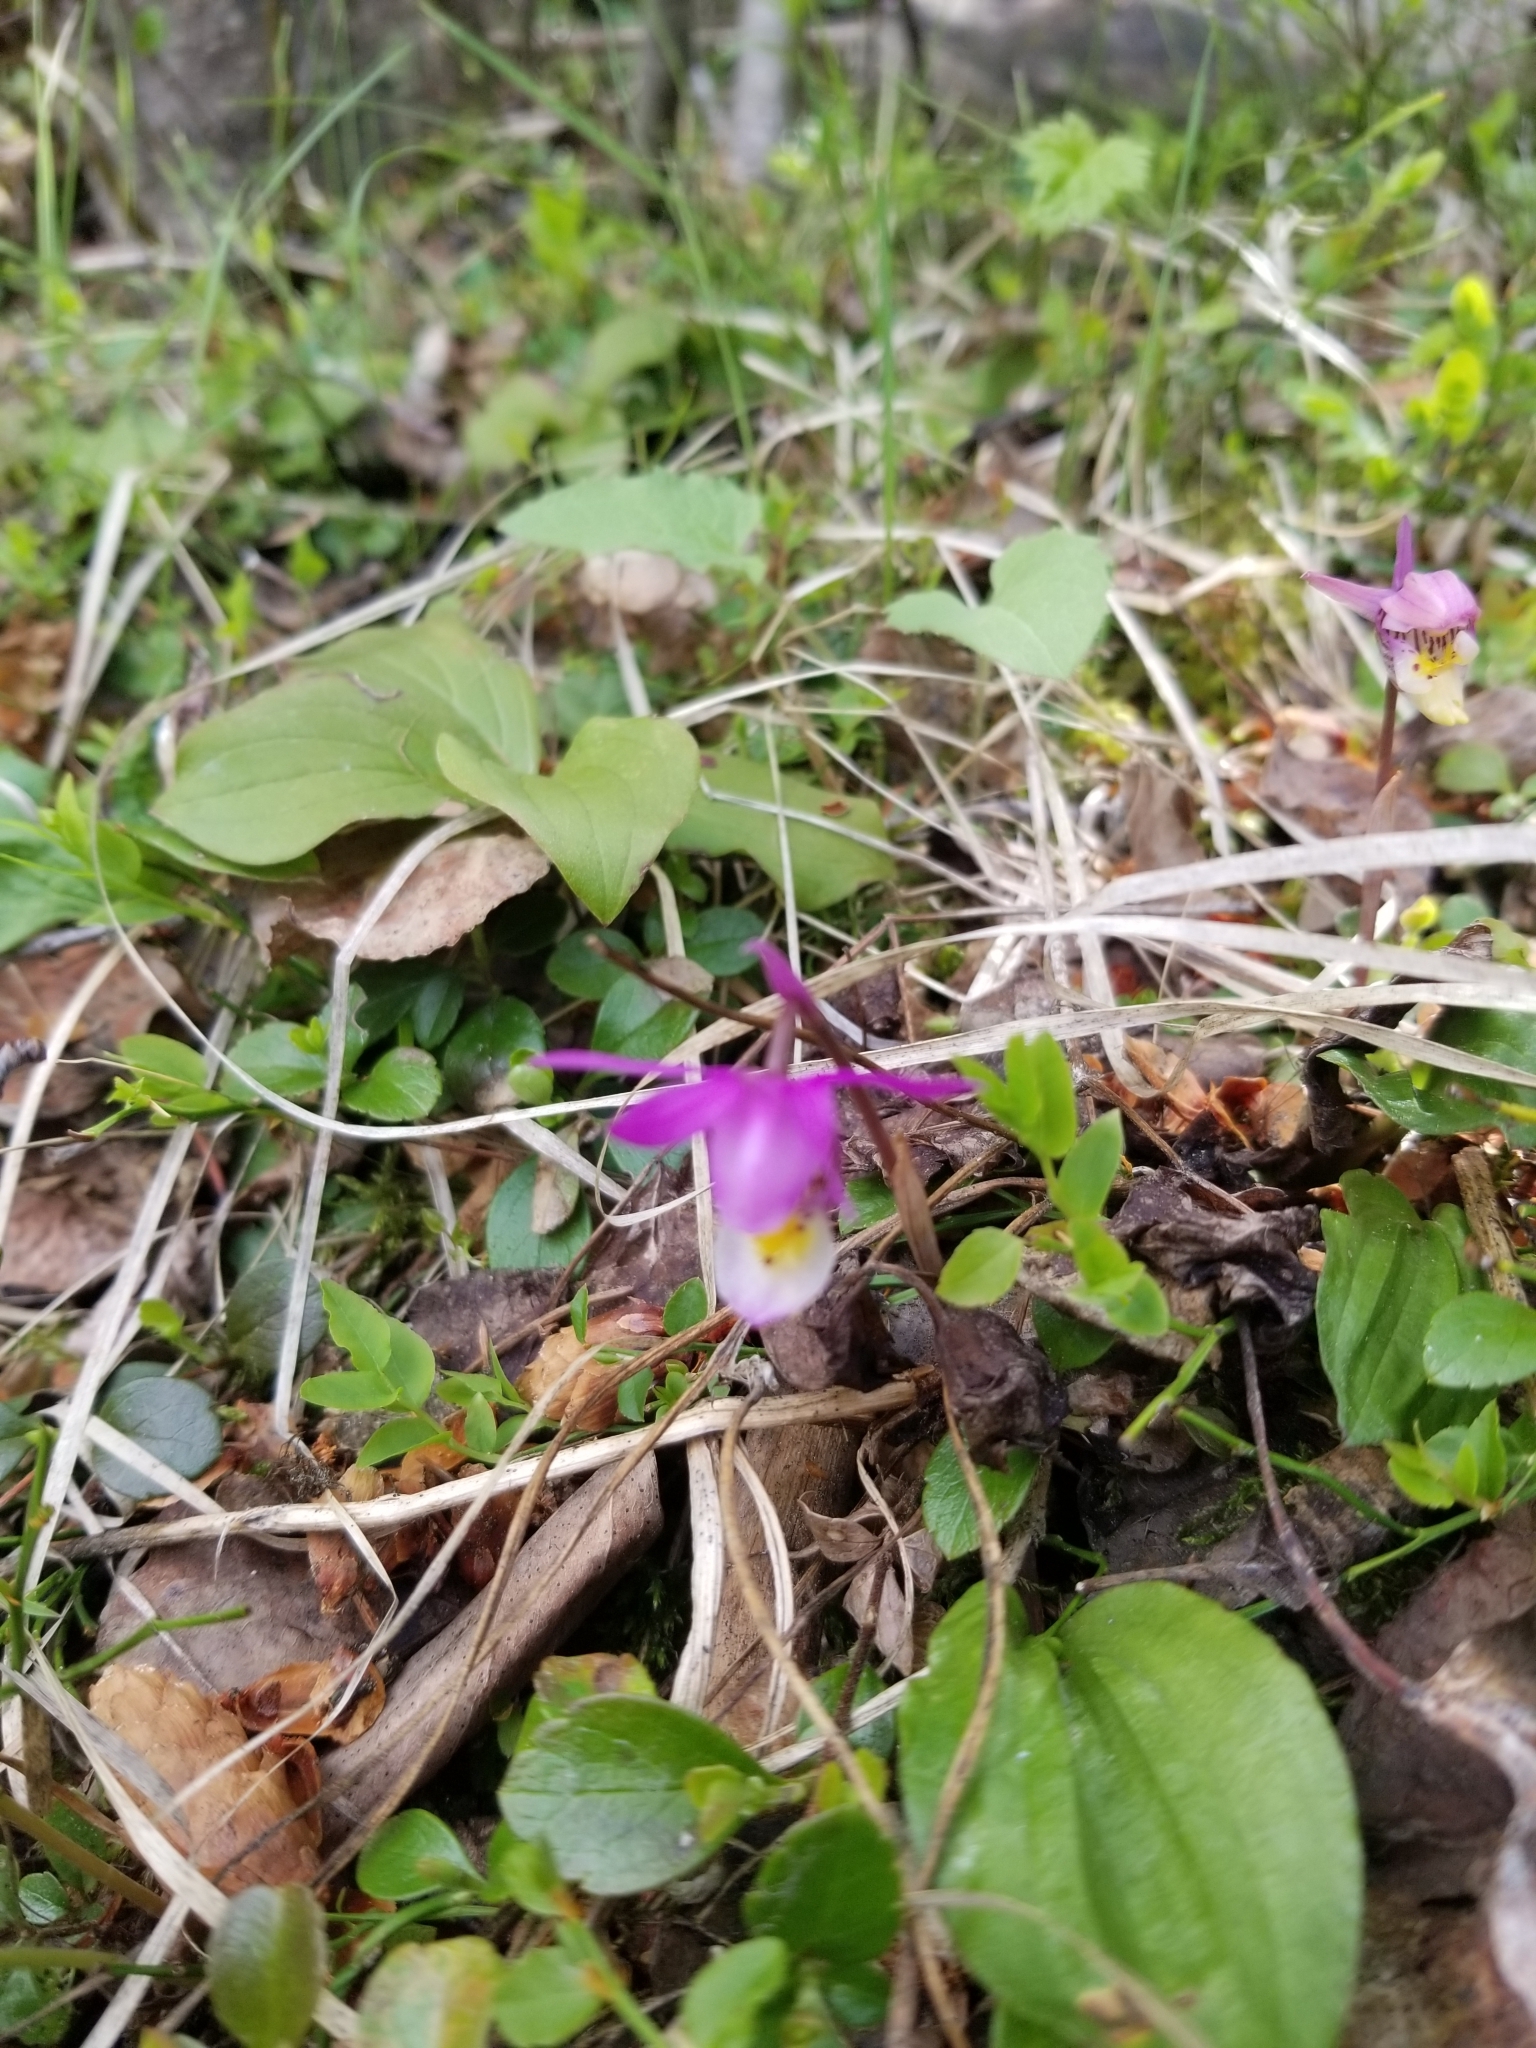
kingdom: Plantae
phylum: Tracheophyta
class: Liliopsida
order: Asparagales
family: Orchidaceae
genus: Calypso
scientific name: Calypso bulbosa
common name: Calypso
